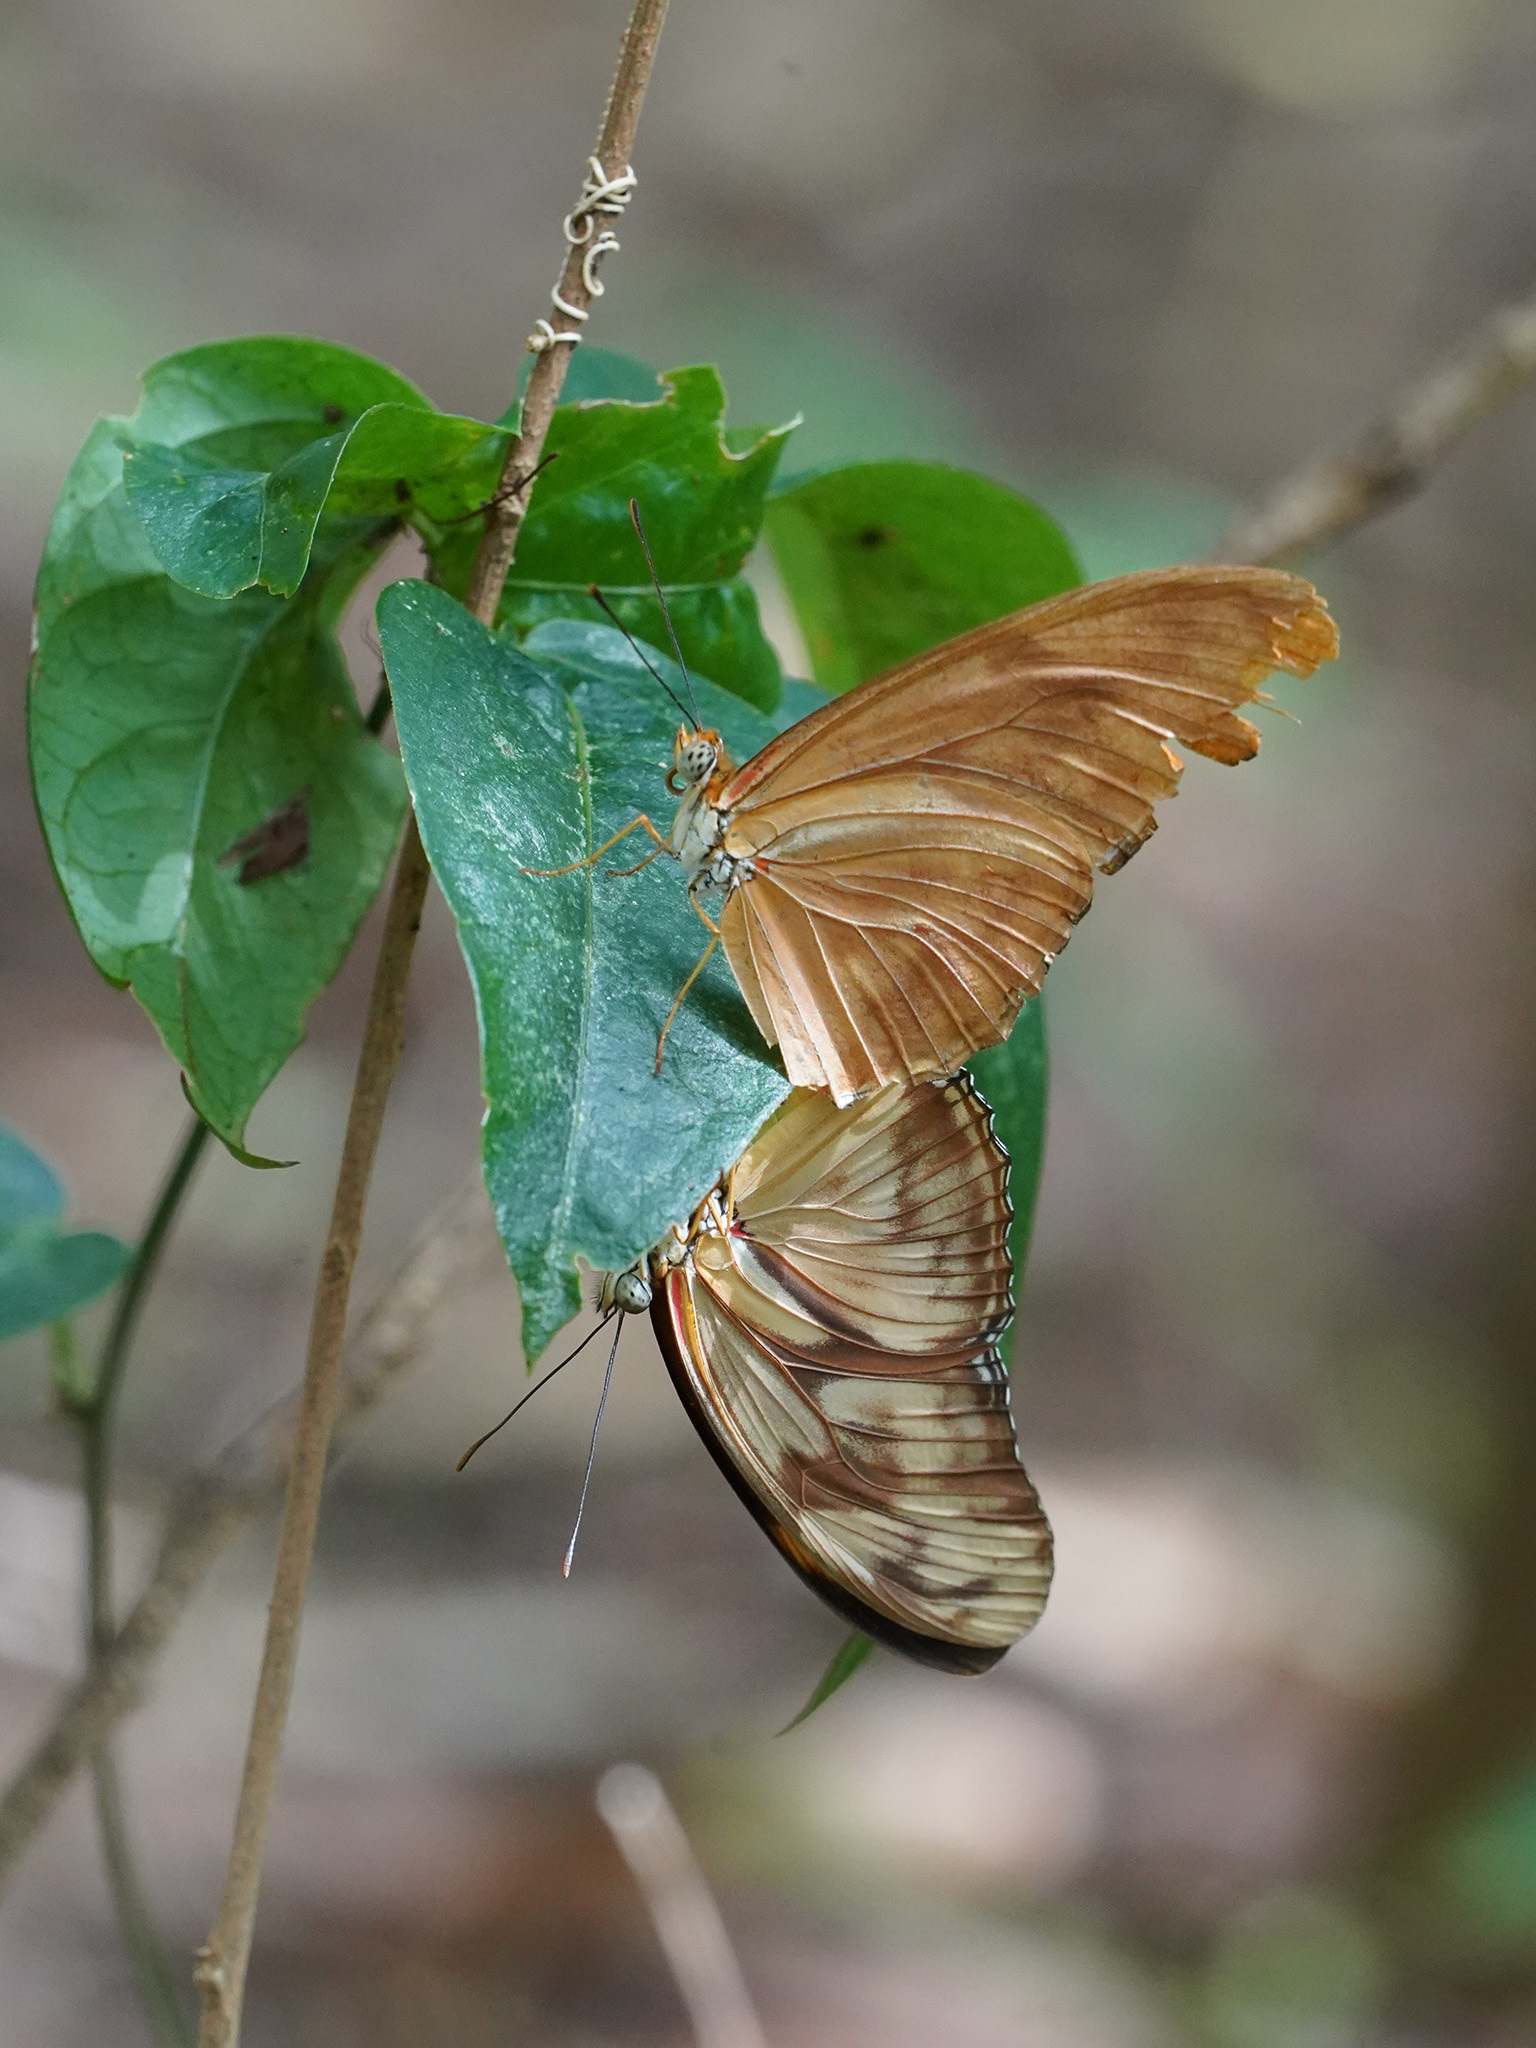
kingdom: Animalia
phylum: Arthropoda
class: Insecta
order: Lepidoptera
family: Nymphalidae
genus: Dryas
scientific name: Dryas iulia
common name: Flambeau
